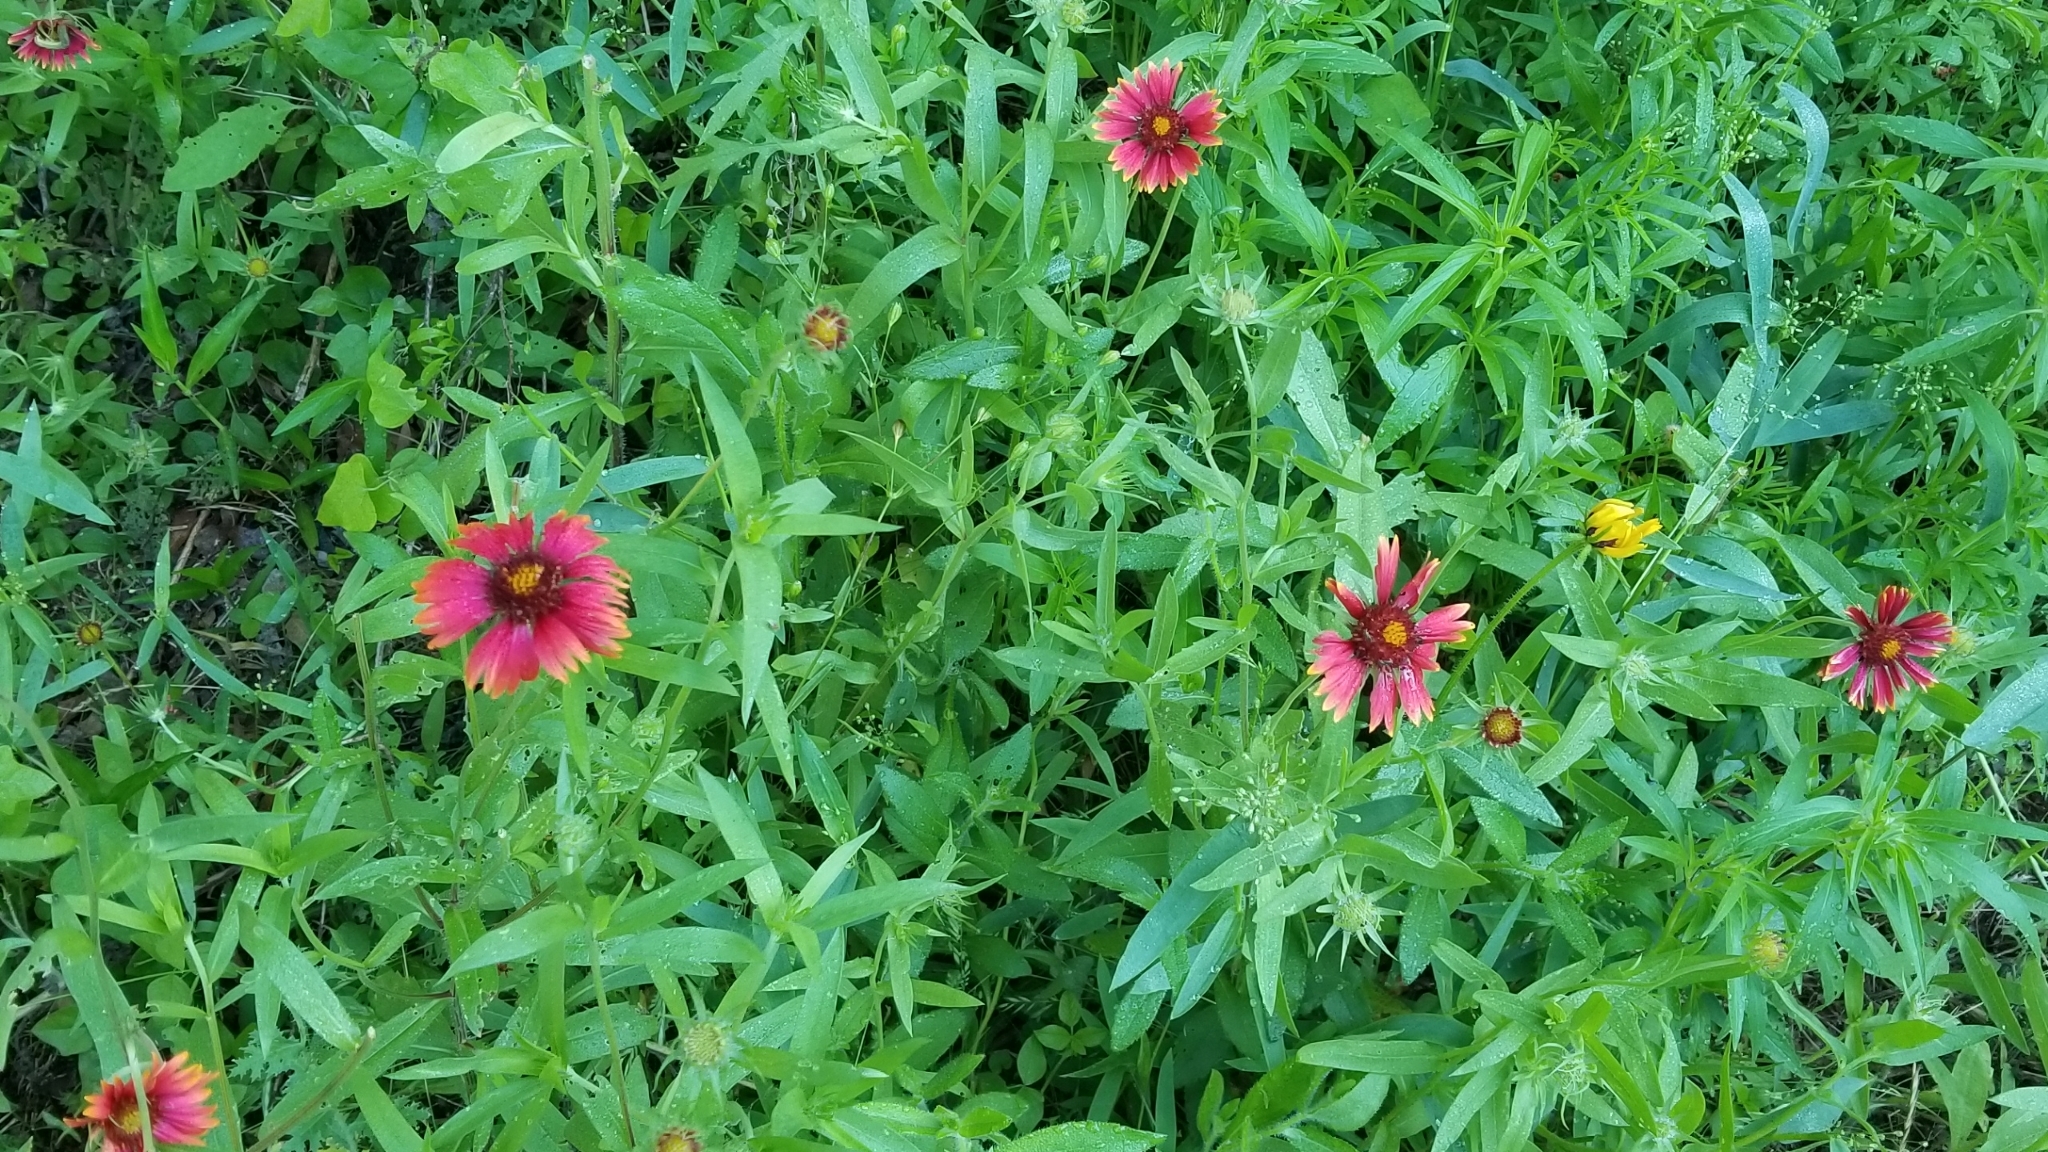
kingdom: Plantae
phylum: Tracheophyta
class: Magnoliopsida
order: Asterales
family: Asteraceae
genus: Gaillardia
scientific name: Gaillardia pulchella
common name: Firewheel
